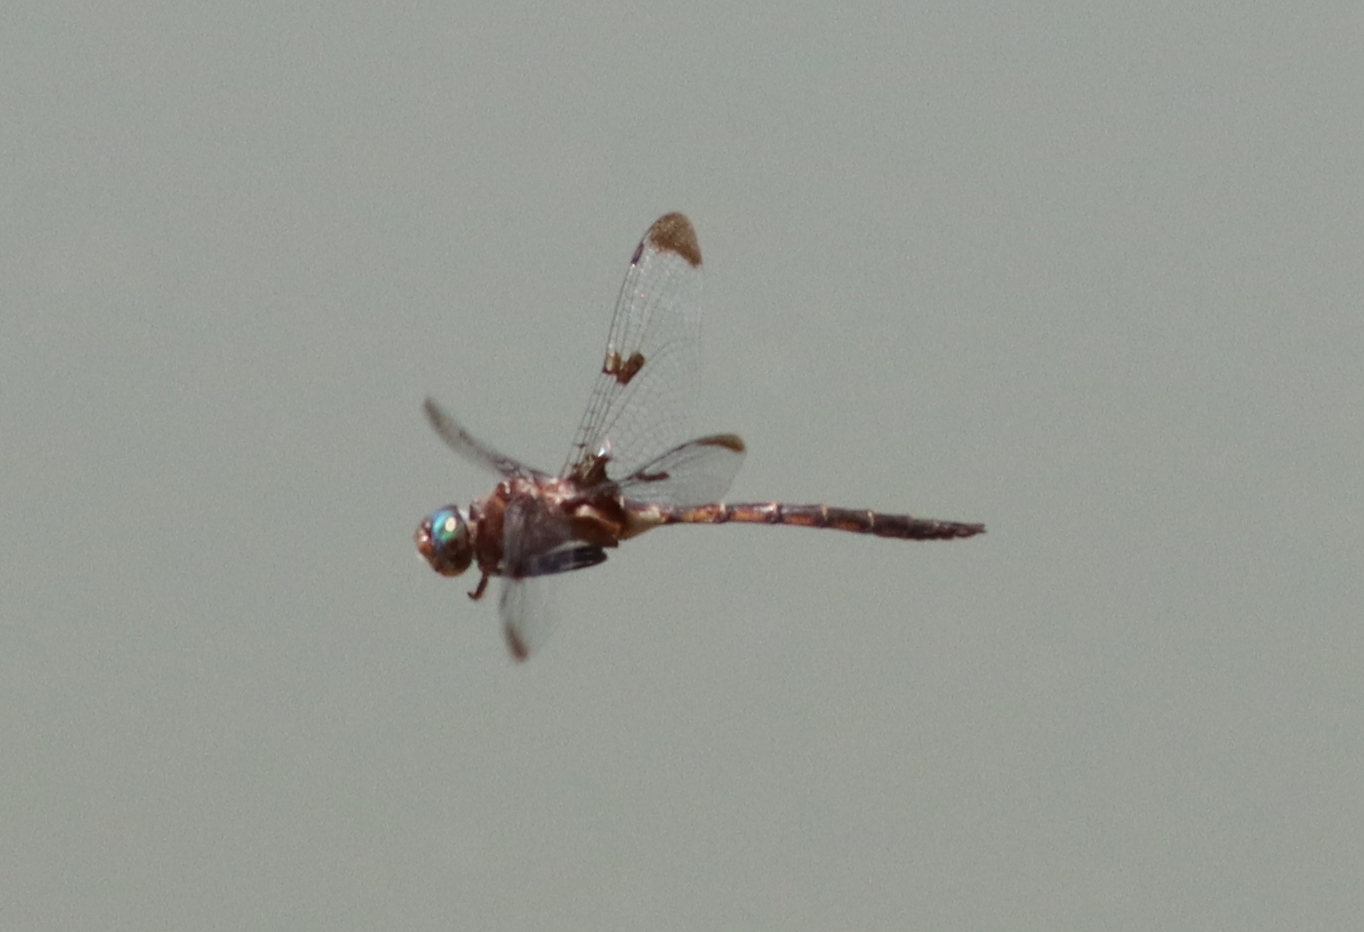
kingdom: Animalia
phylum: Arthropoda
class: Insecta
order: Odonata
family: Corduliidae
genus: Epitheca
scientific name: Epitheca princeps
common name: Prince baskettail
